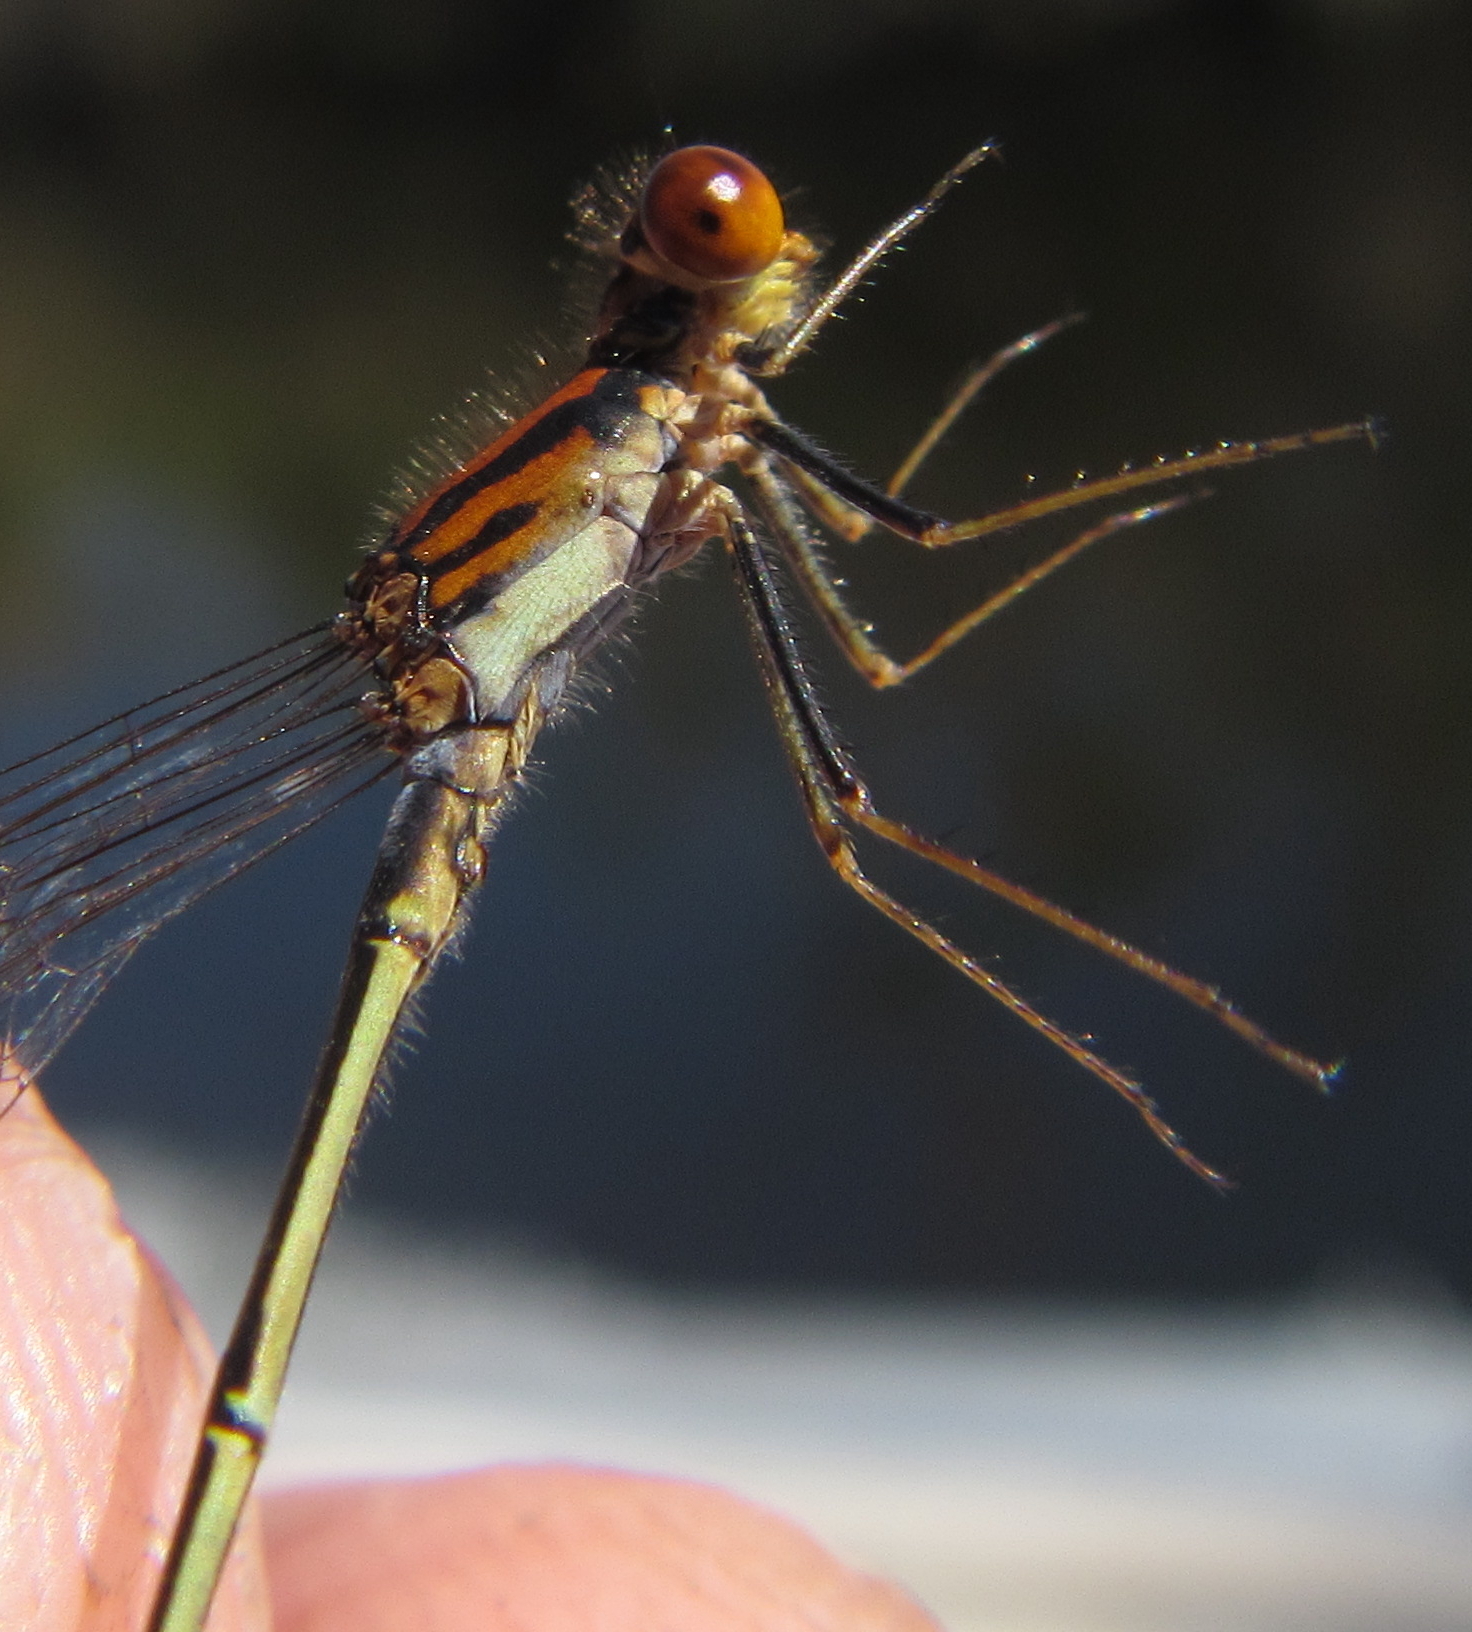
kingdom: Animalia
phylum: Arthropoda
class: Insecta
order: Odonata
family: Coenagrionidae
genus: Pseudagrion
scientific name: Pseudagrion rufostigma
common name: Dark sprite
